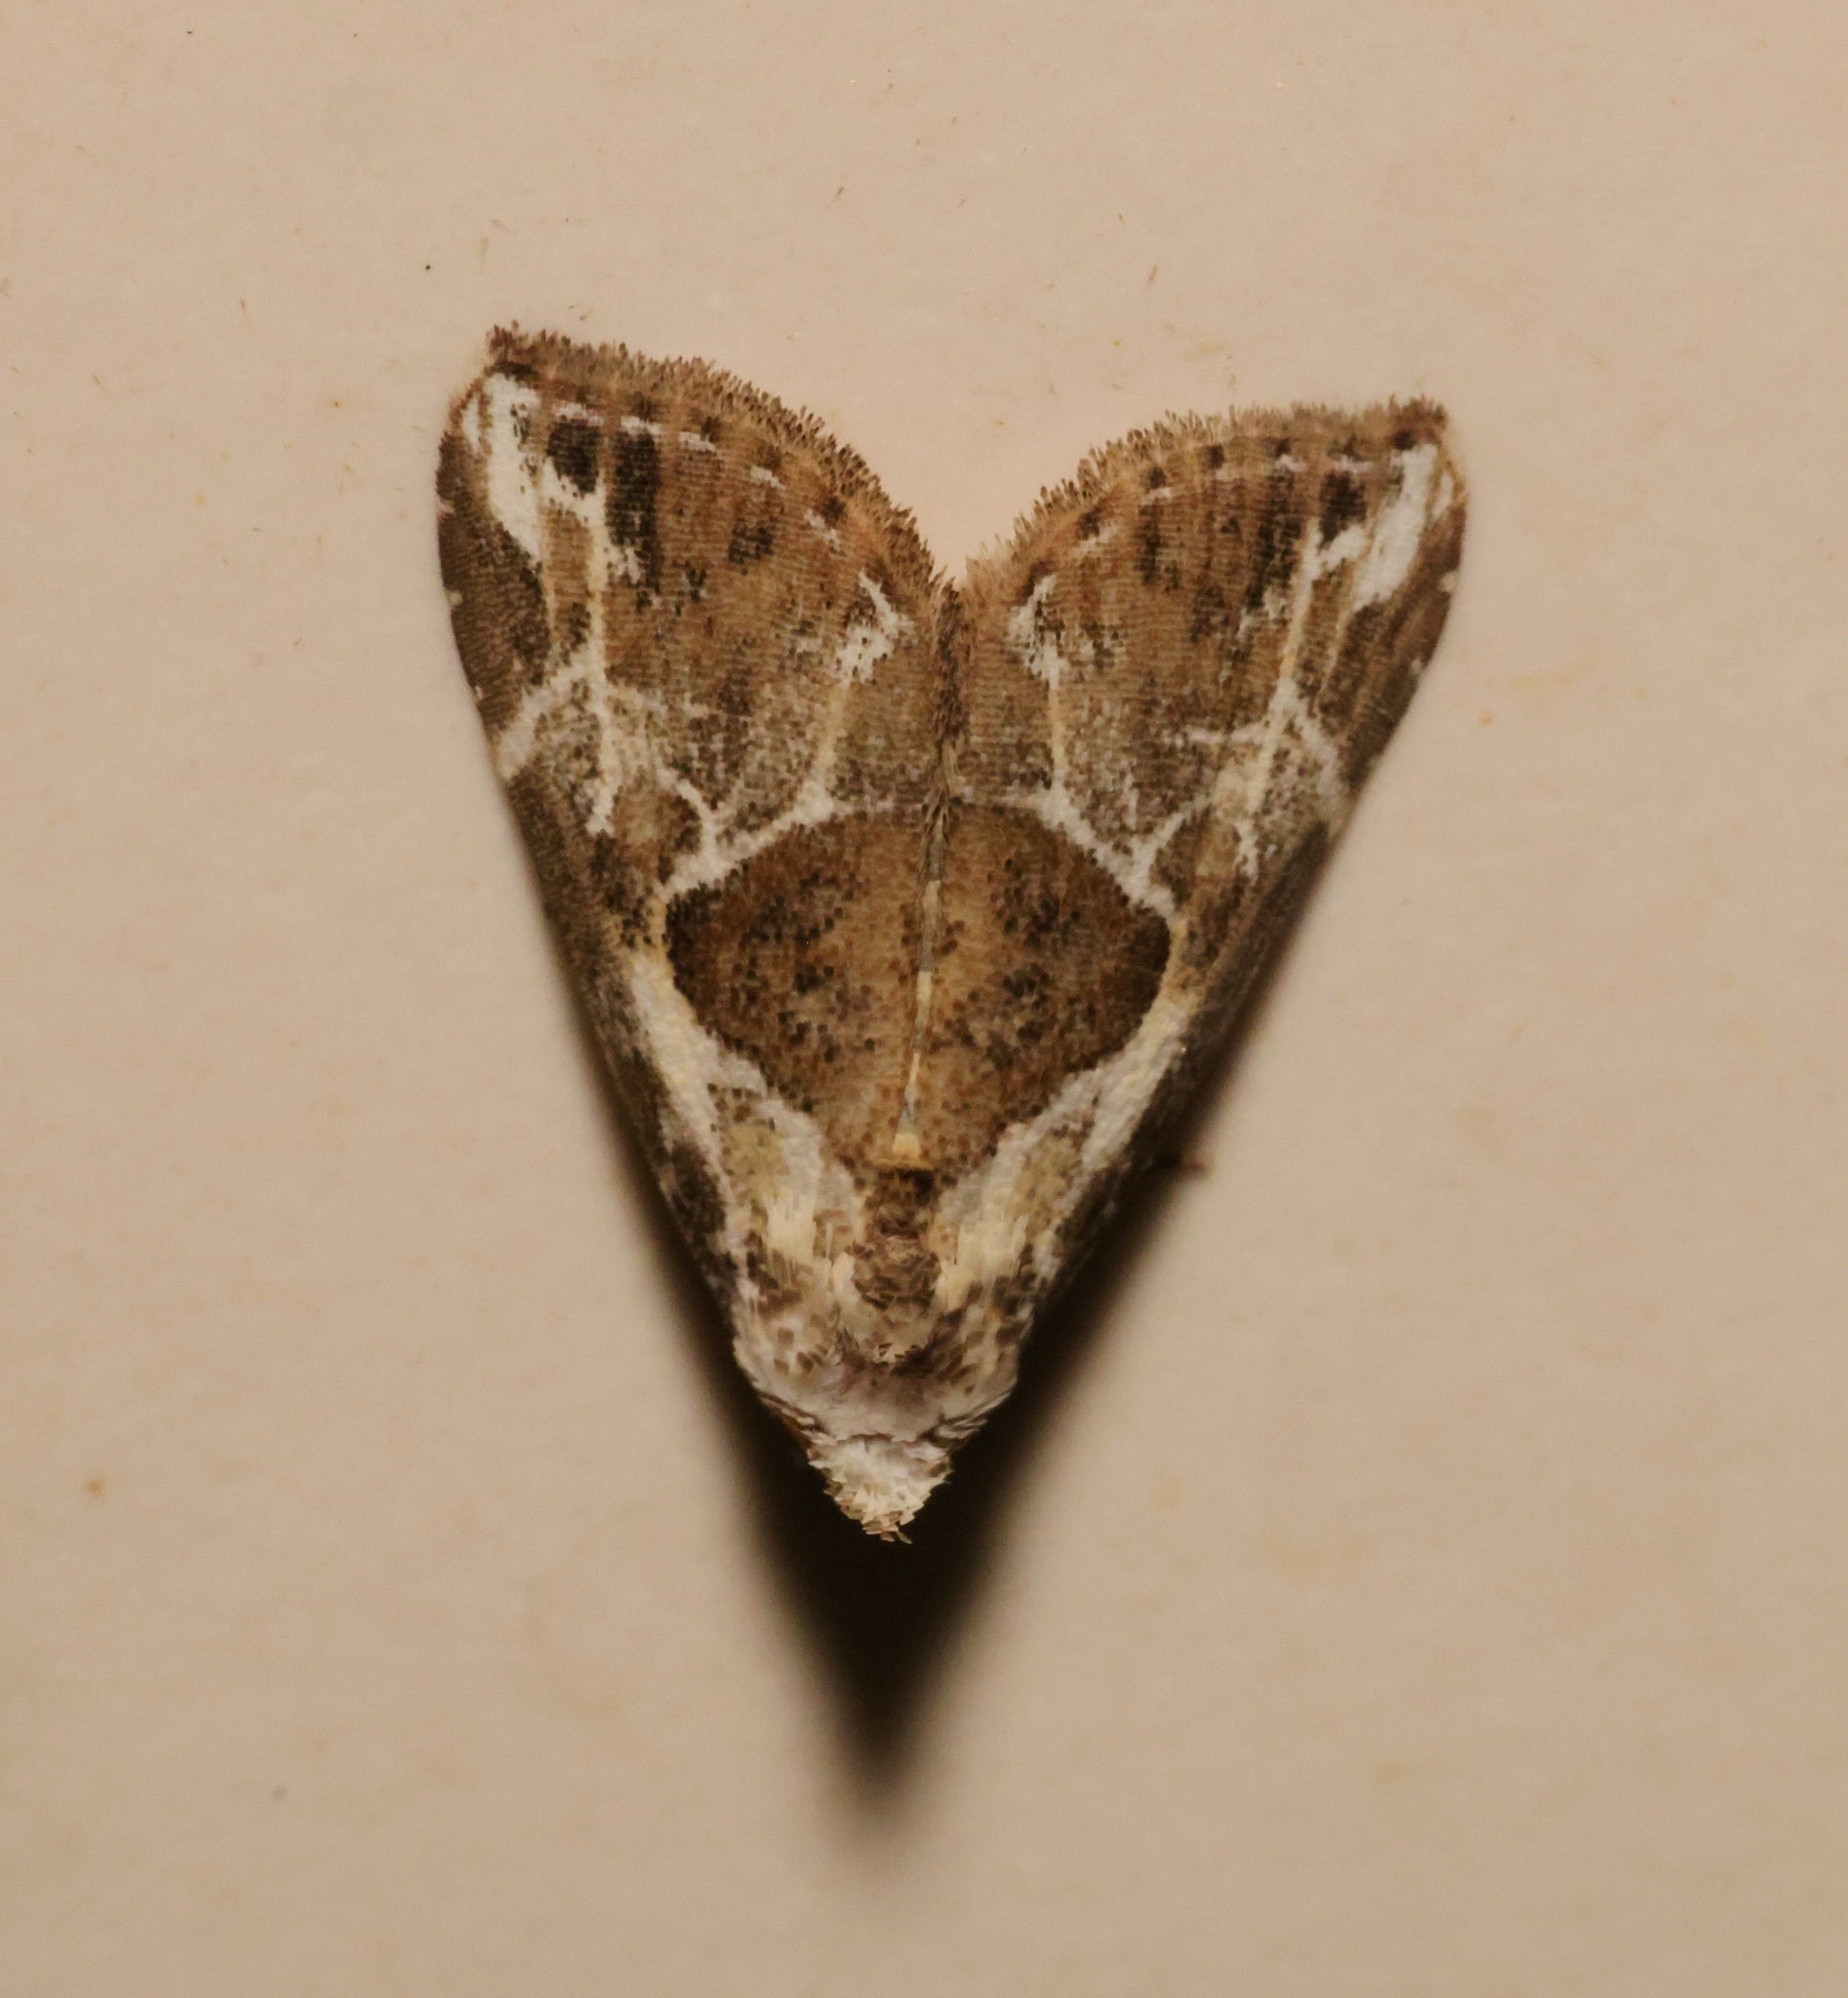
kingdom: Animalia
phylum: Arthropoda
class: Insecta
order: Lepidoptera
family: Erebidae
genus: Chorsia
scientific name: Chorsia albiscriptus
